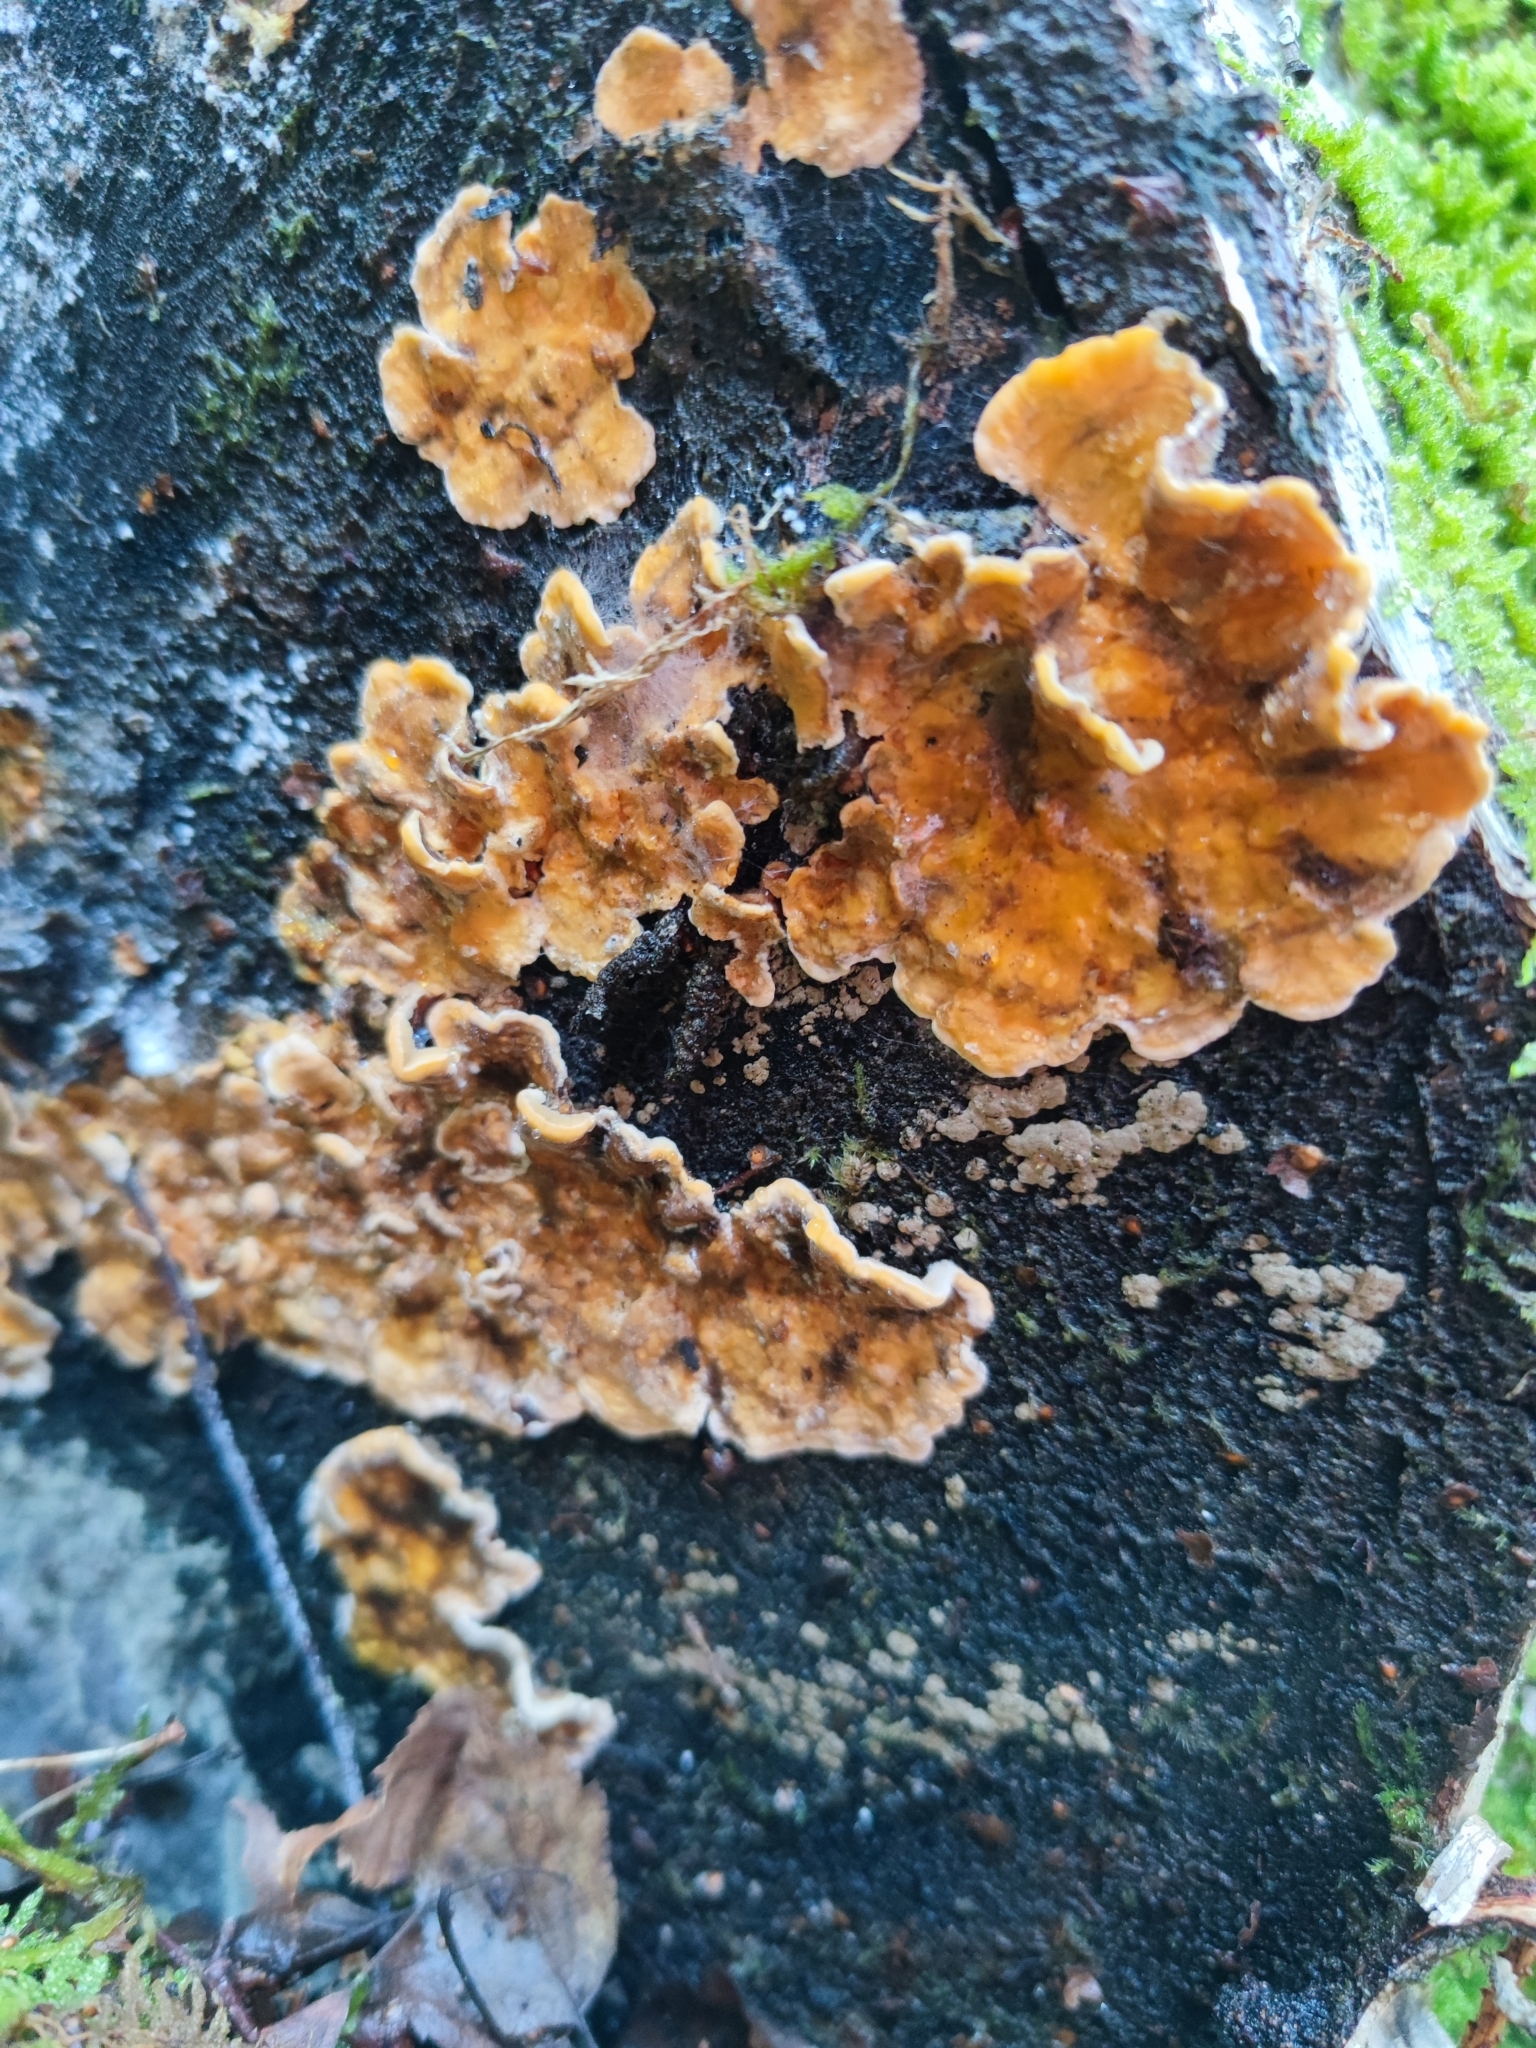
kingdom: Fungi
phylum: Basidiomycota
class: Agaricomycetes
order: Russulales
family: Stereaceae
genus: Stereum
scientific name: Stereum hirsutum
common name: Hairy curtain crust
